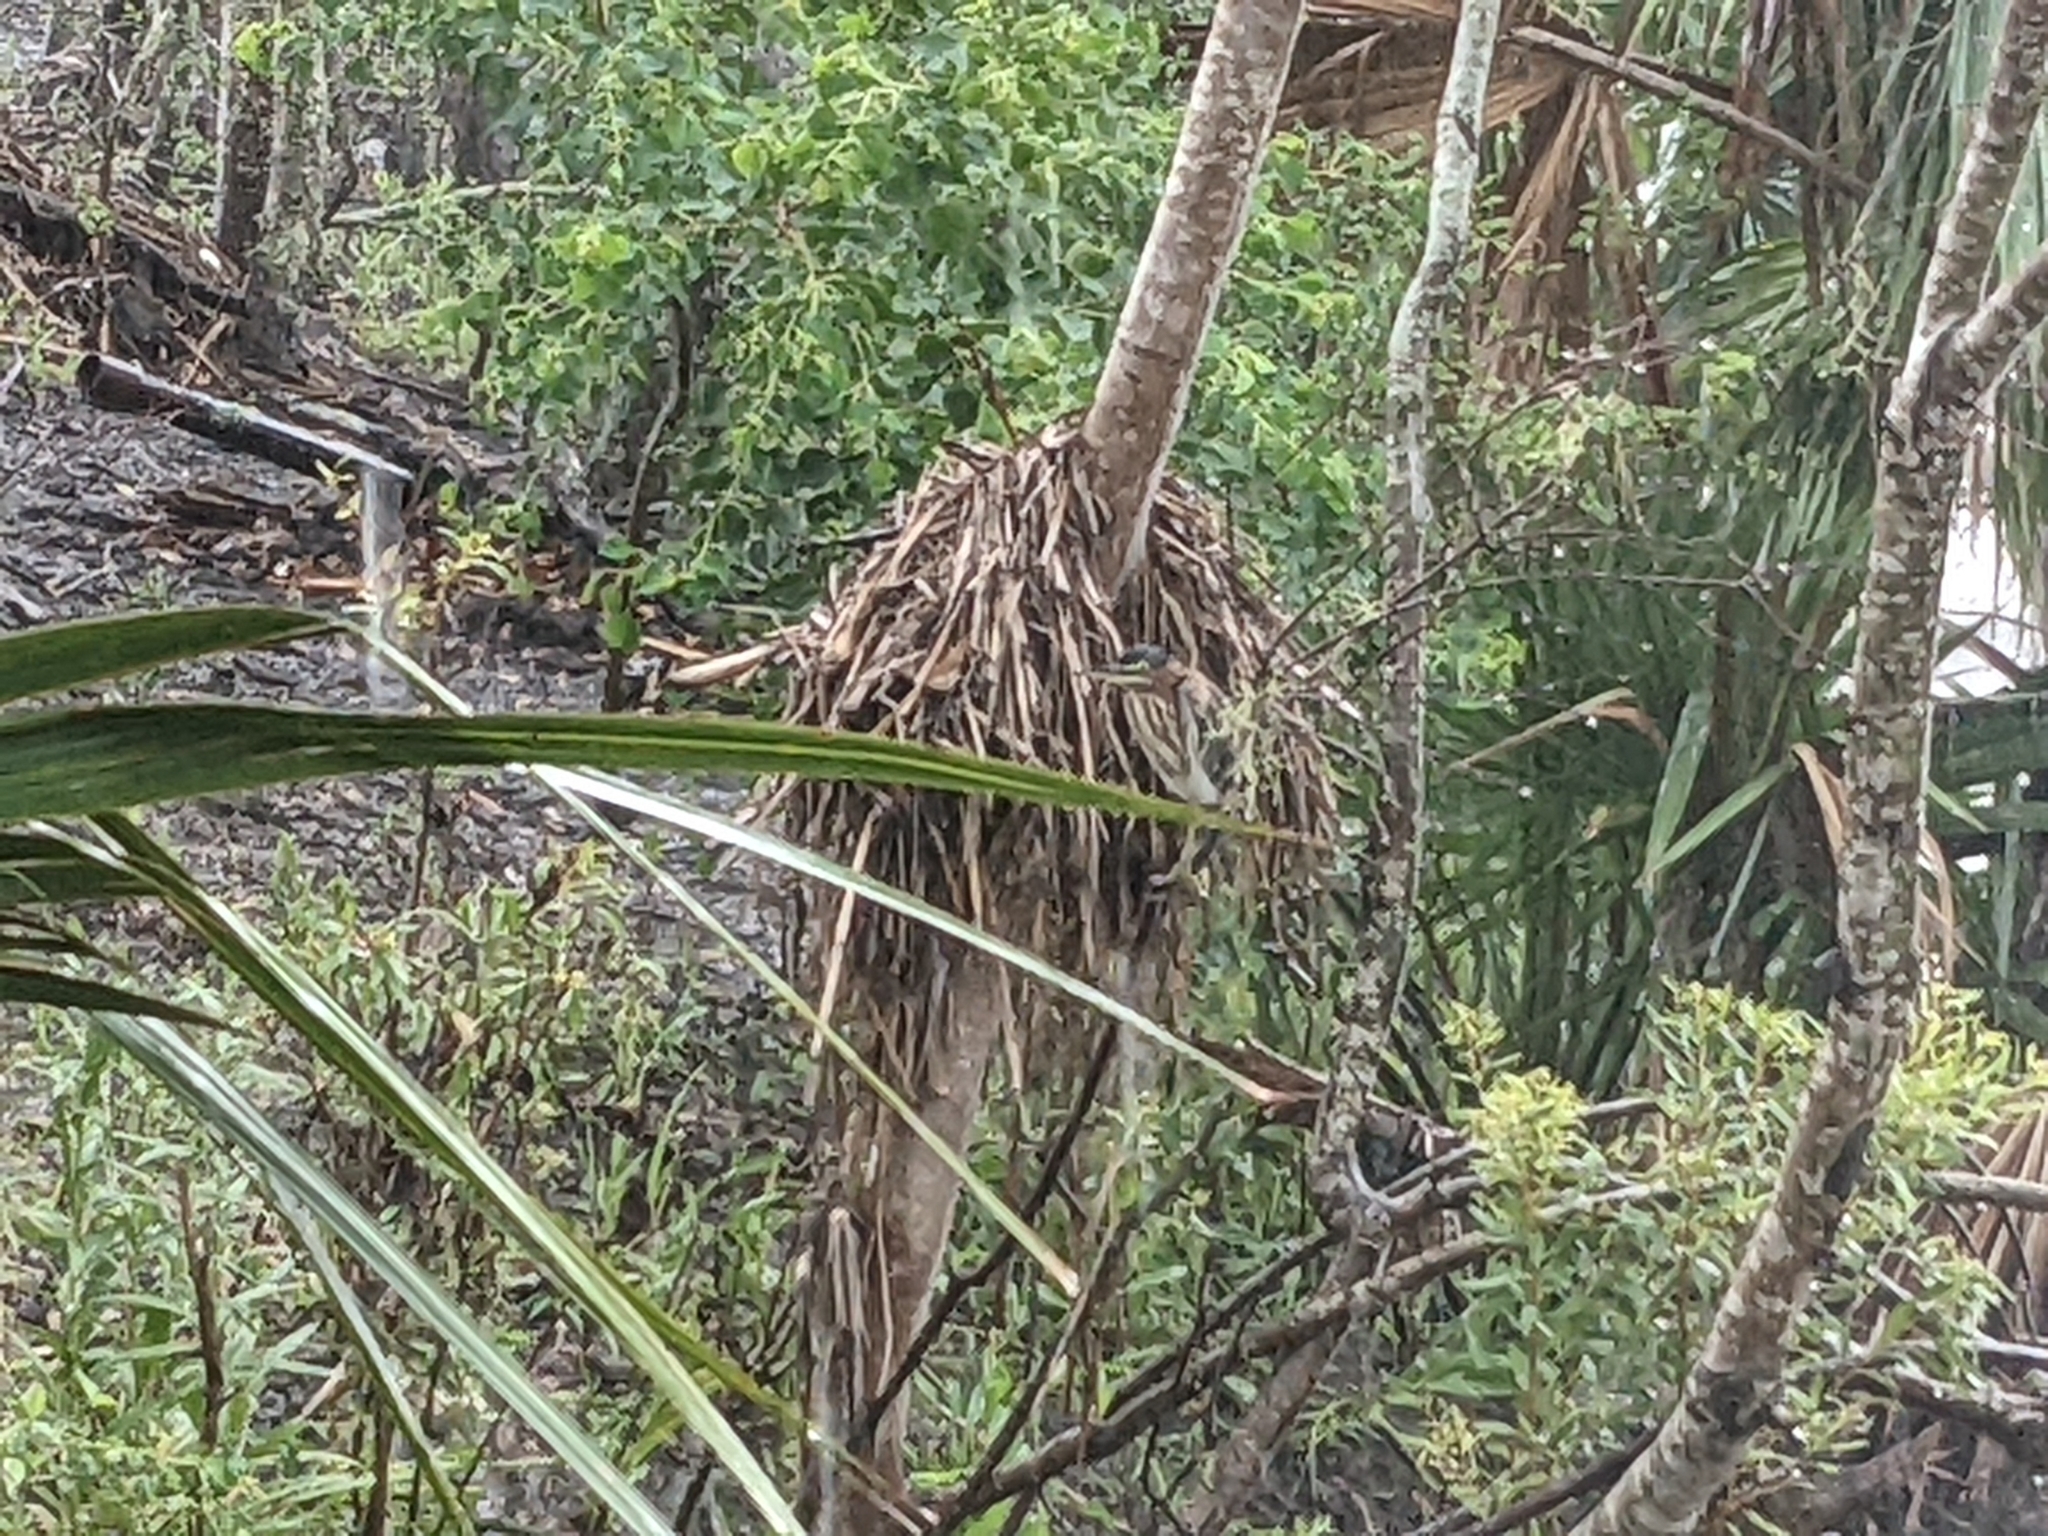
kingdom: Animalia
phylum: Chordata
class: Aves
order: Pelecaniformes
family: Ardeidae
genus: Butorides
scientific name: Butorides virescens
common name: Green heron
